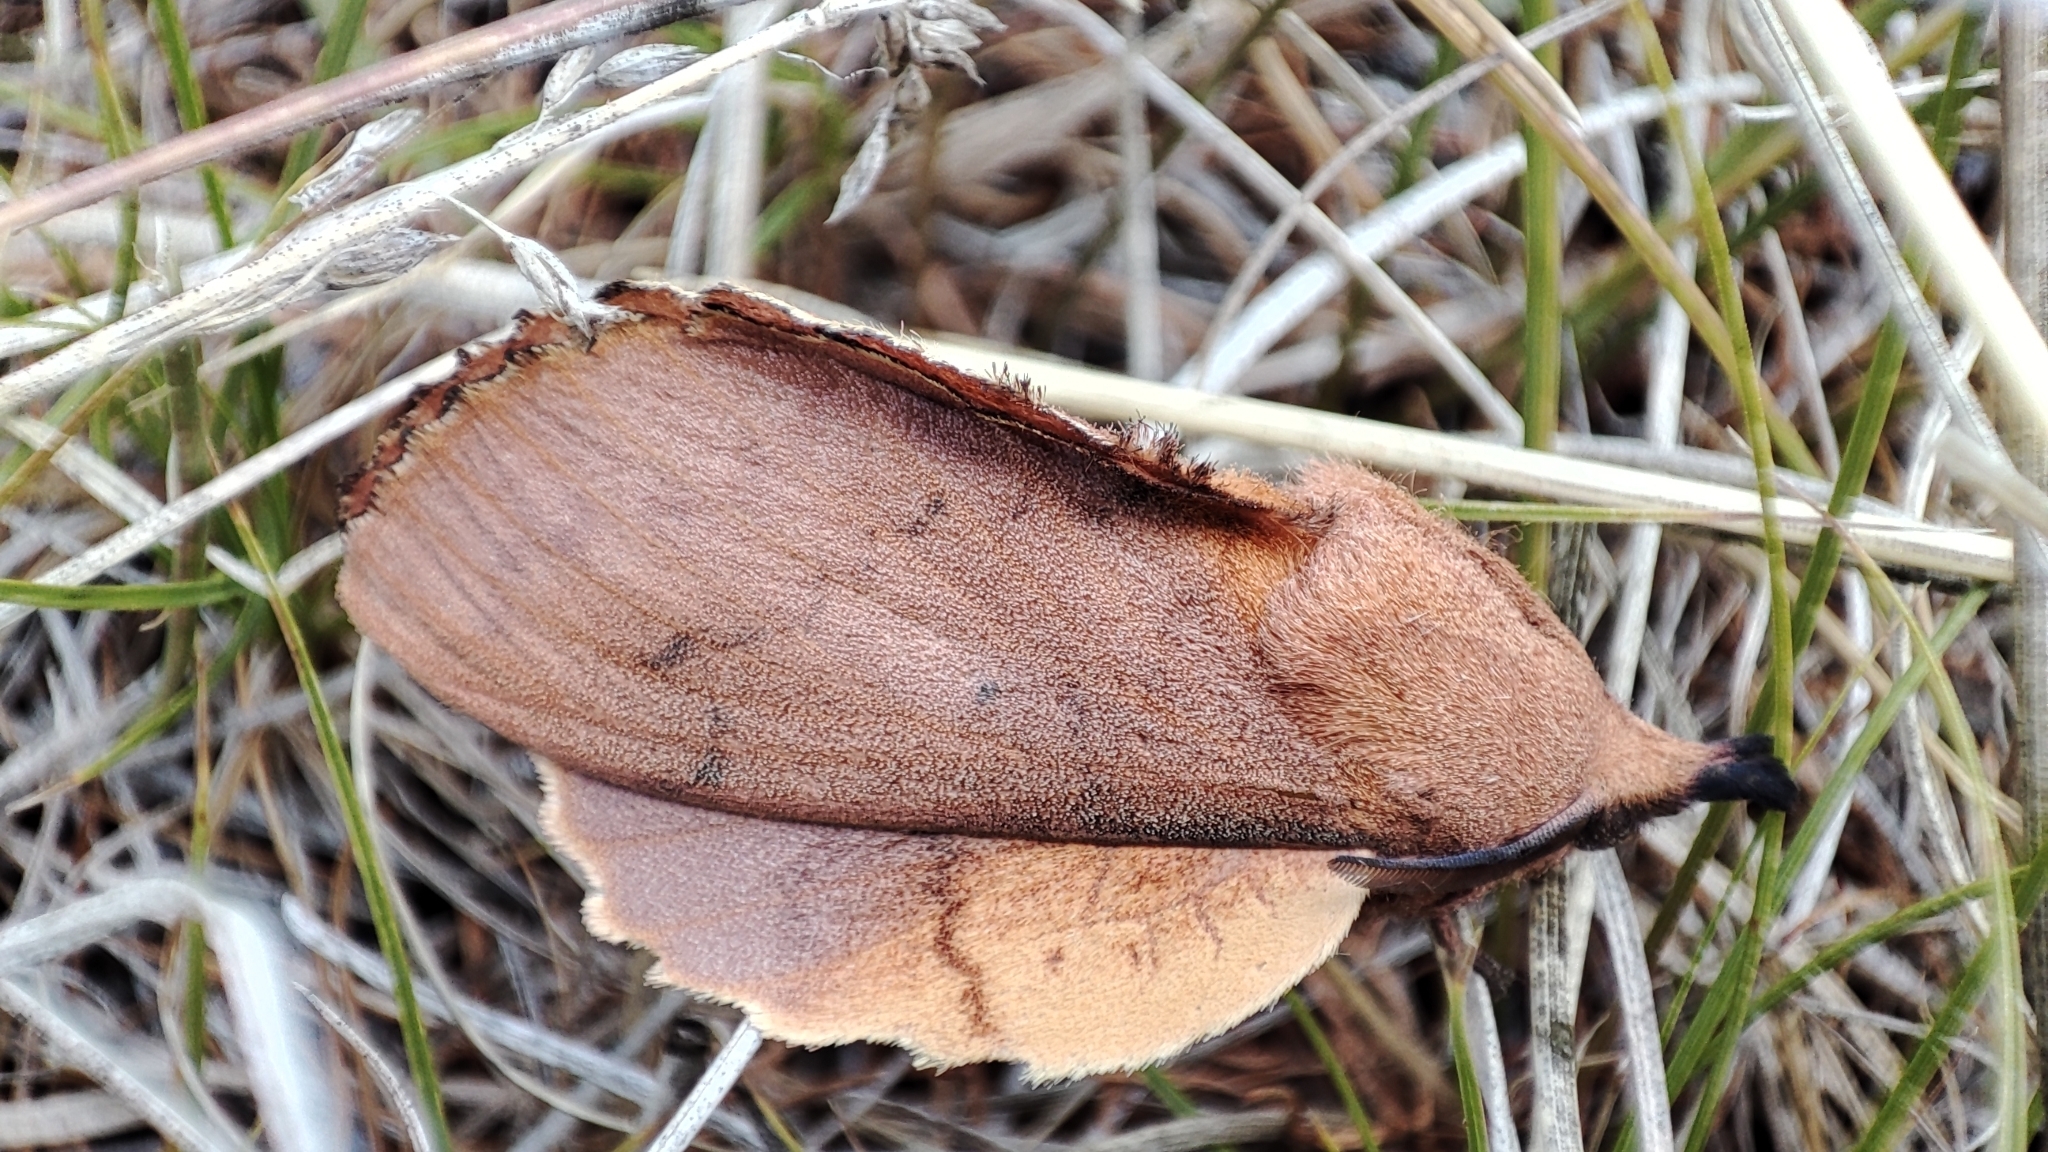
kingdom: Animalia
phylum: Arthropoda
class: Insecta
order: Lepidoptera
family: Lasiocampidae
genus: Gastropacha
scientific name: Gastropacha quercifolia
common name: Lappet
